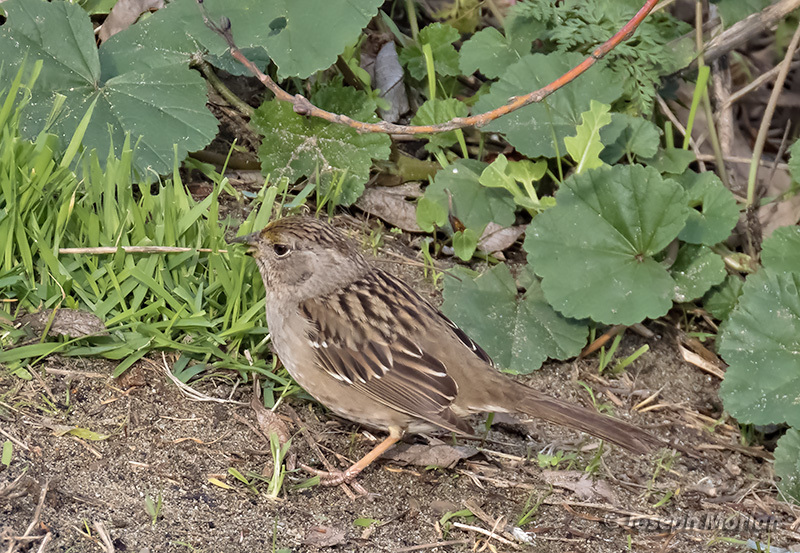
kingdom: Animalia
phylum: Chordata
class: Aves
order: Passeriformes
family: Passerellidae
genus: Zonotrichia
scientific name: Zonotrichia atricapilla
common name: Golden-crowned sparrow
